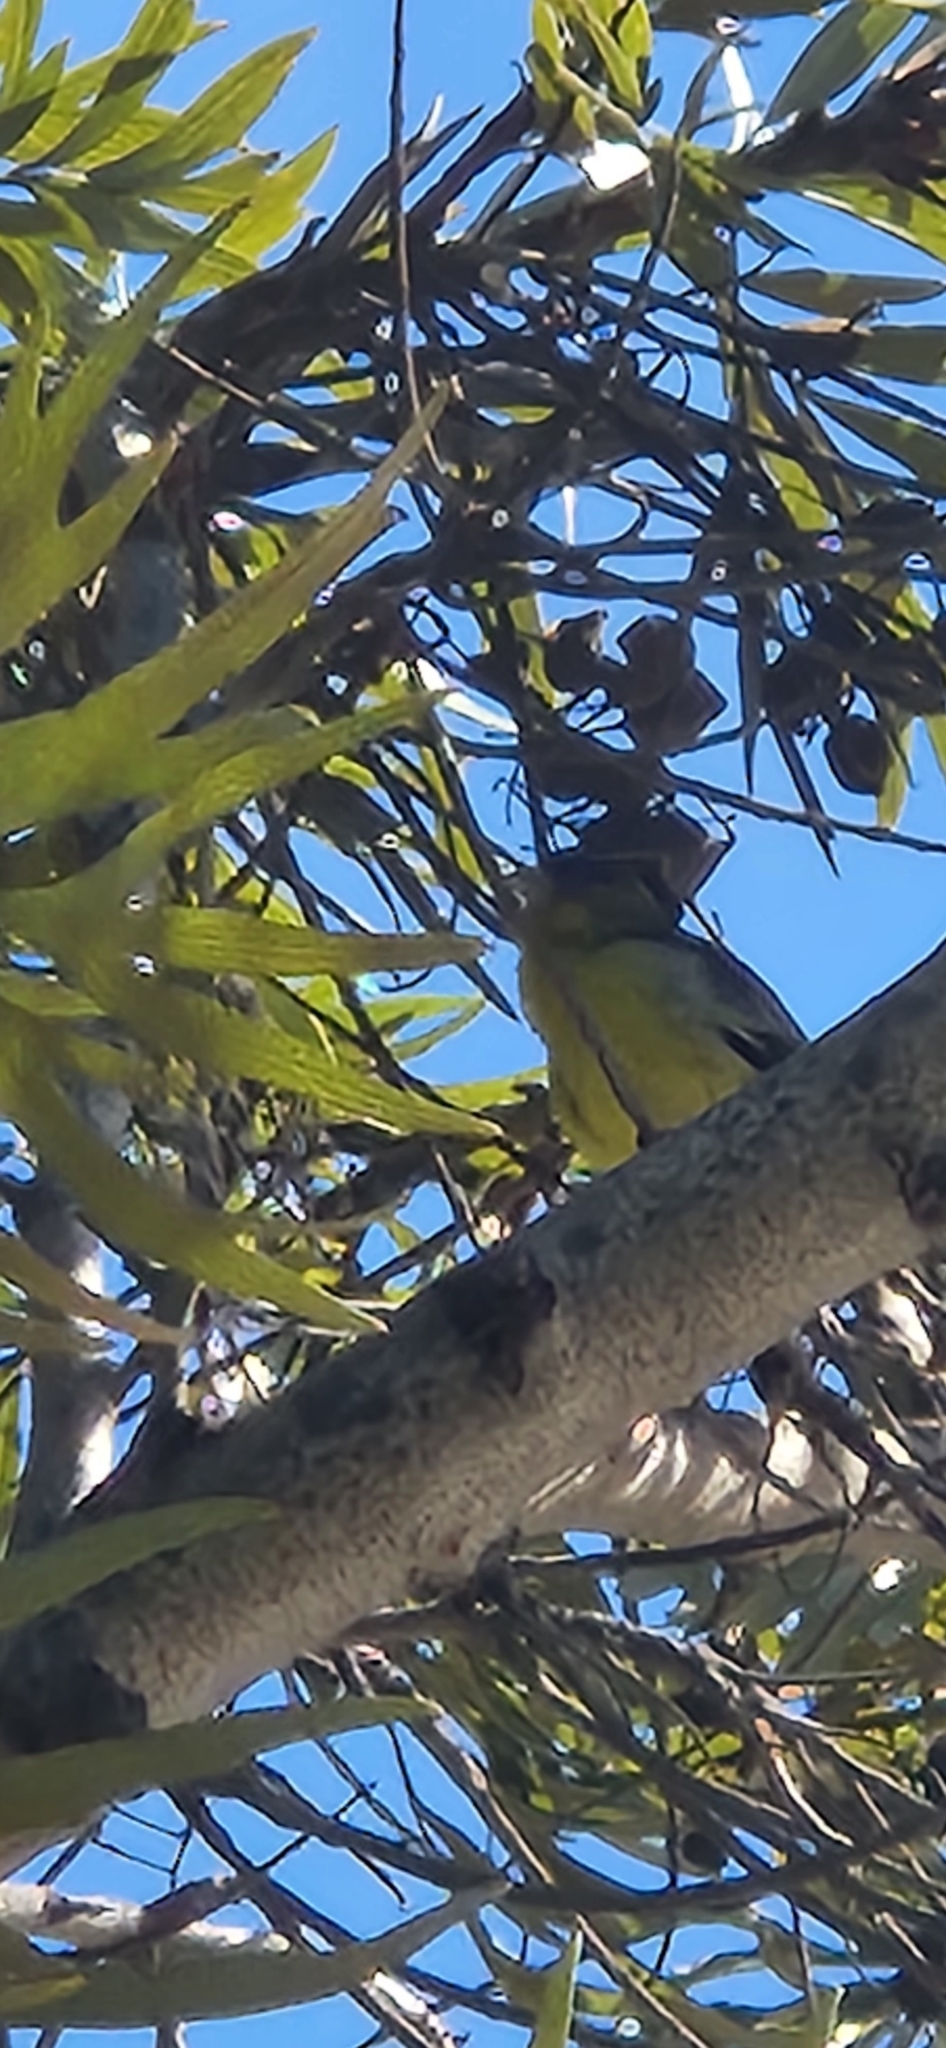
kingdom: Animalia
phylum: Chordata
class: Aves
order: Passeriformes
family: Fringillidae
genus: Spinus
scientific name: Spinus psaltria
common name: Lesser goldfinch
